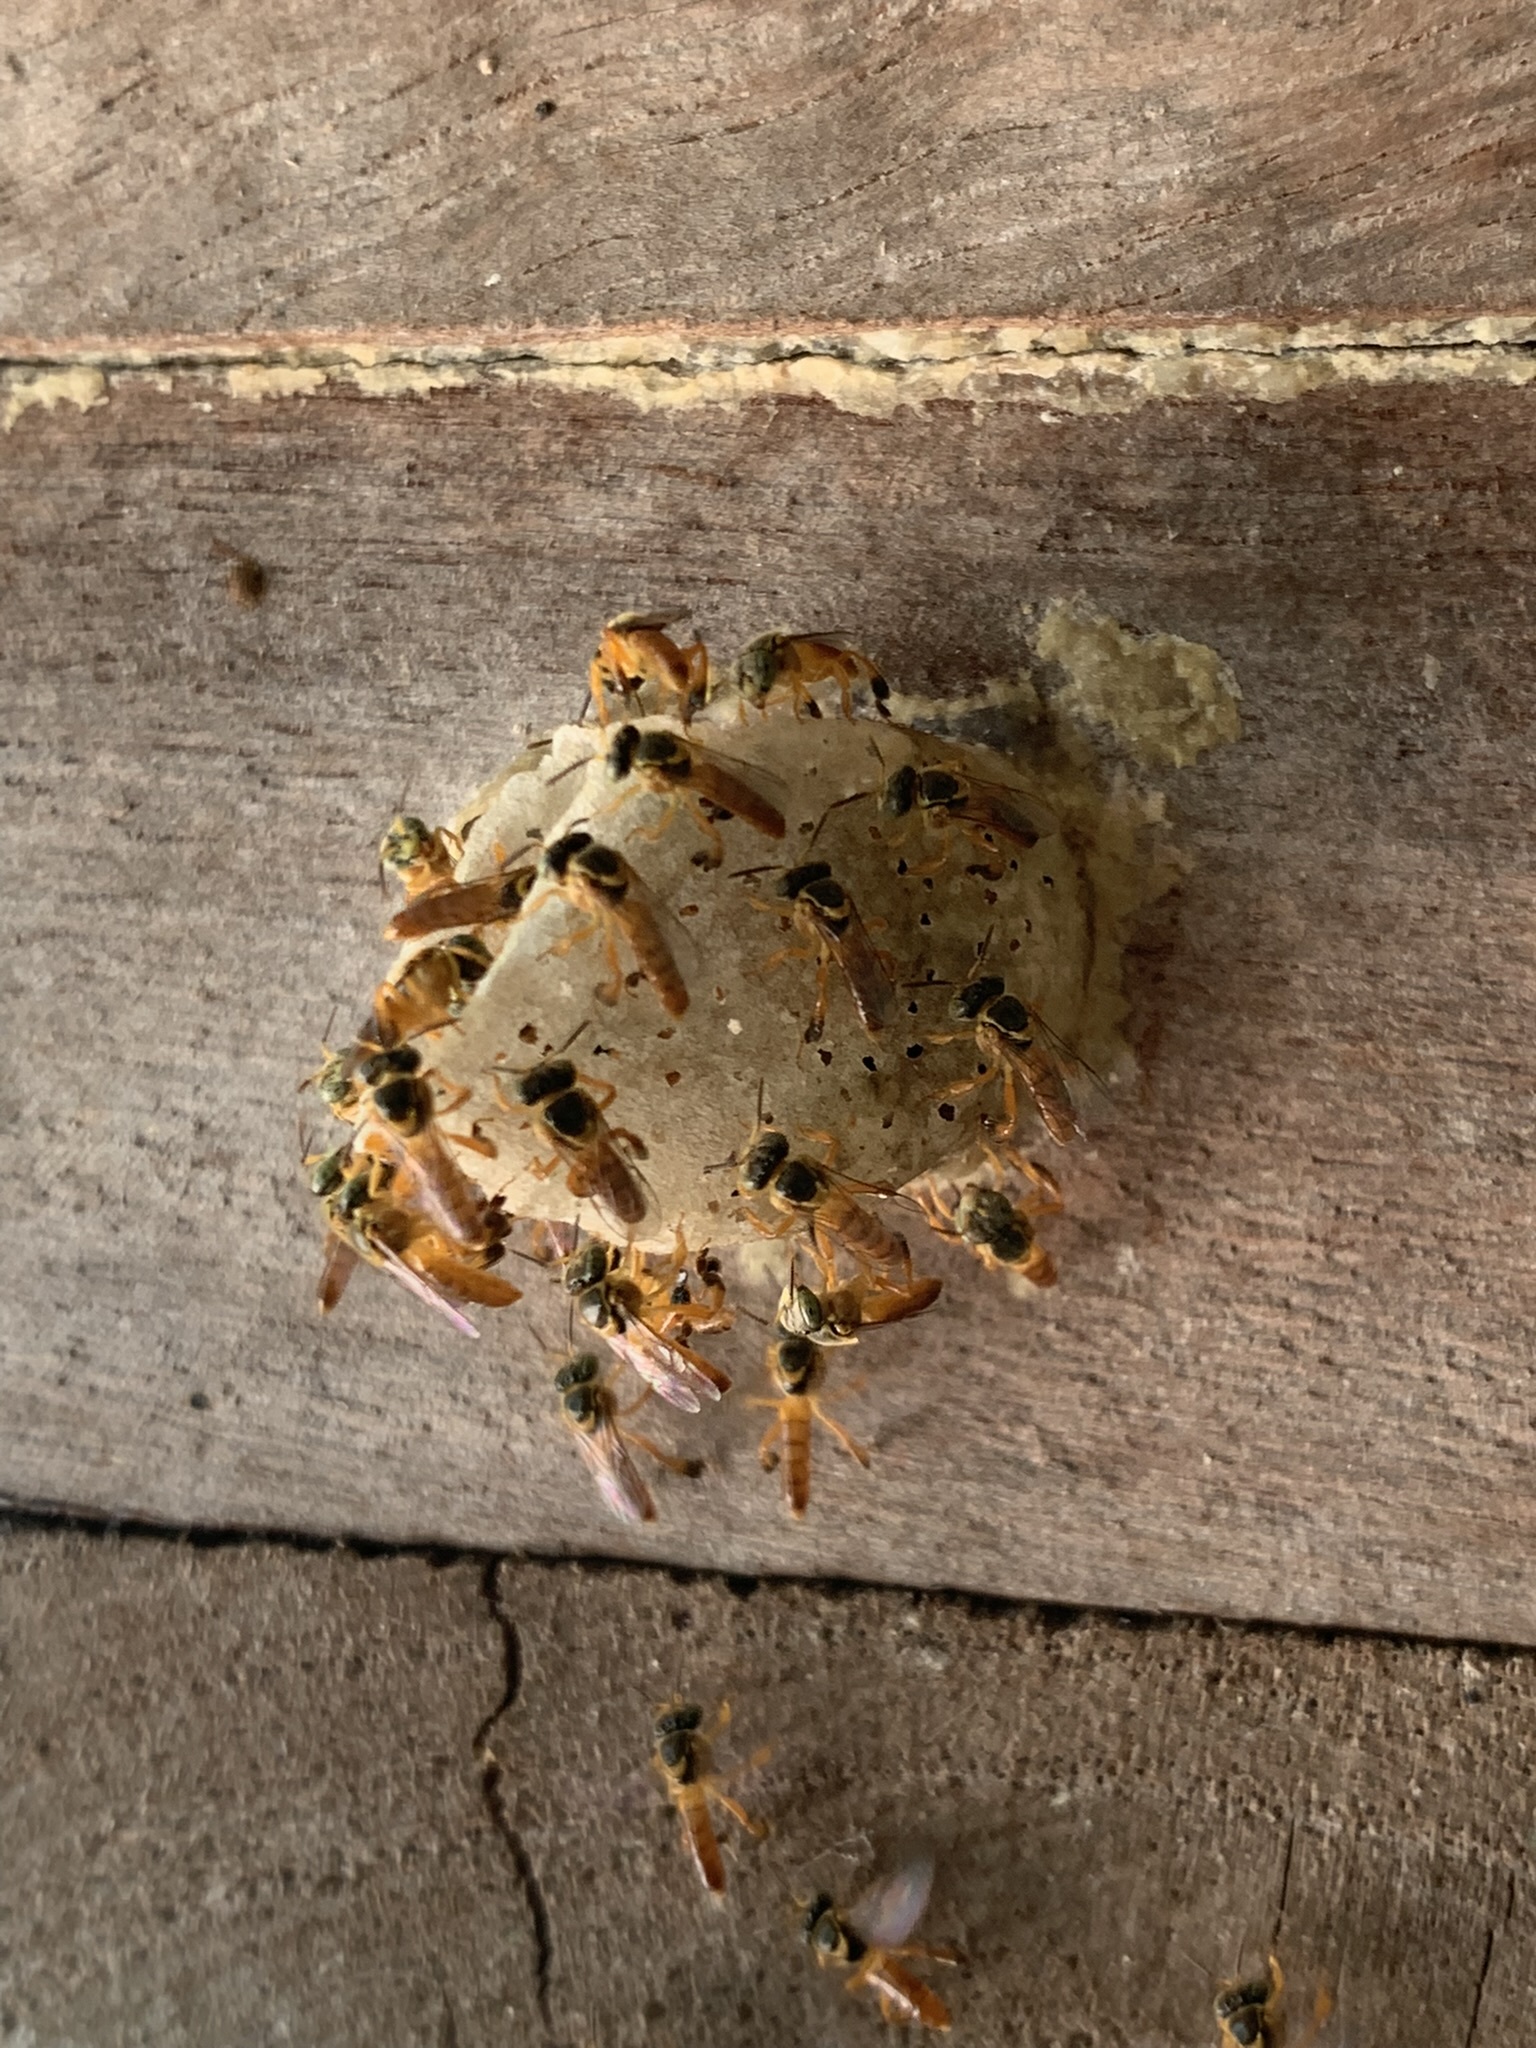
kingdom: Animalia
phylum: Arthropoda
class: Insecta
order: Hymenoptera
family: Apidae
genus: Tetragonisca
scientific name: Tetragonisca fiebrigi
